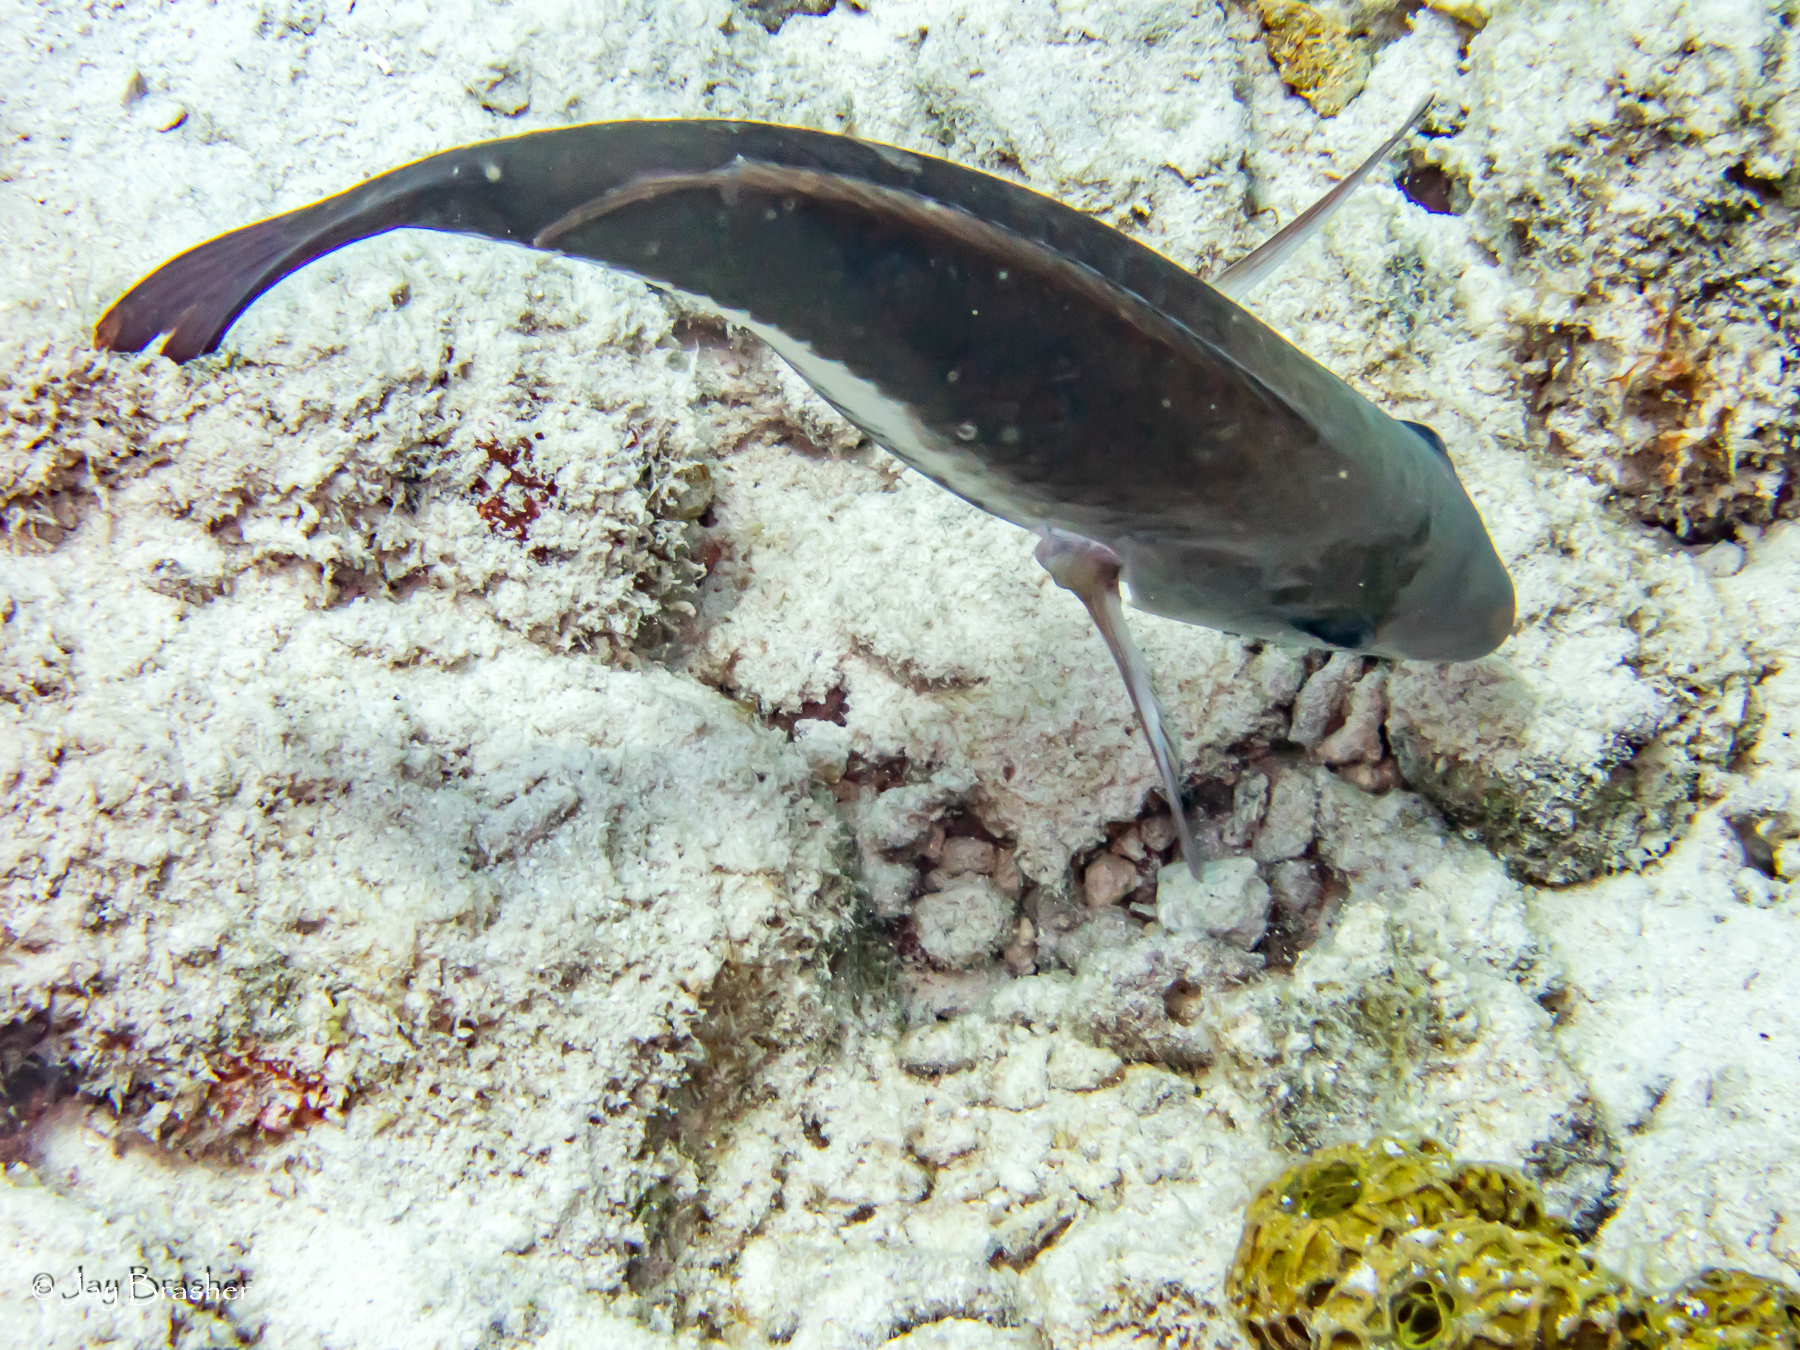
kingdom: Animalia
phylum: Chordata
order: Perciformes
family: Scaridae
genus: Scarus
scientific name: Scarus vetula
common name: Queen parrotfish
